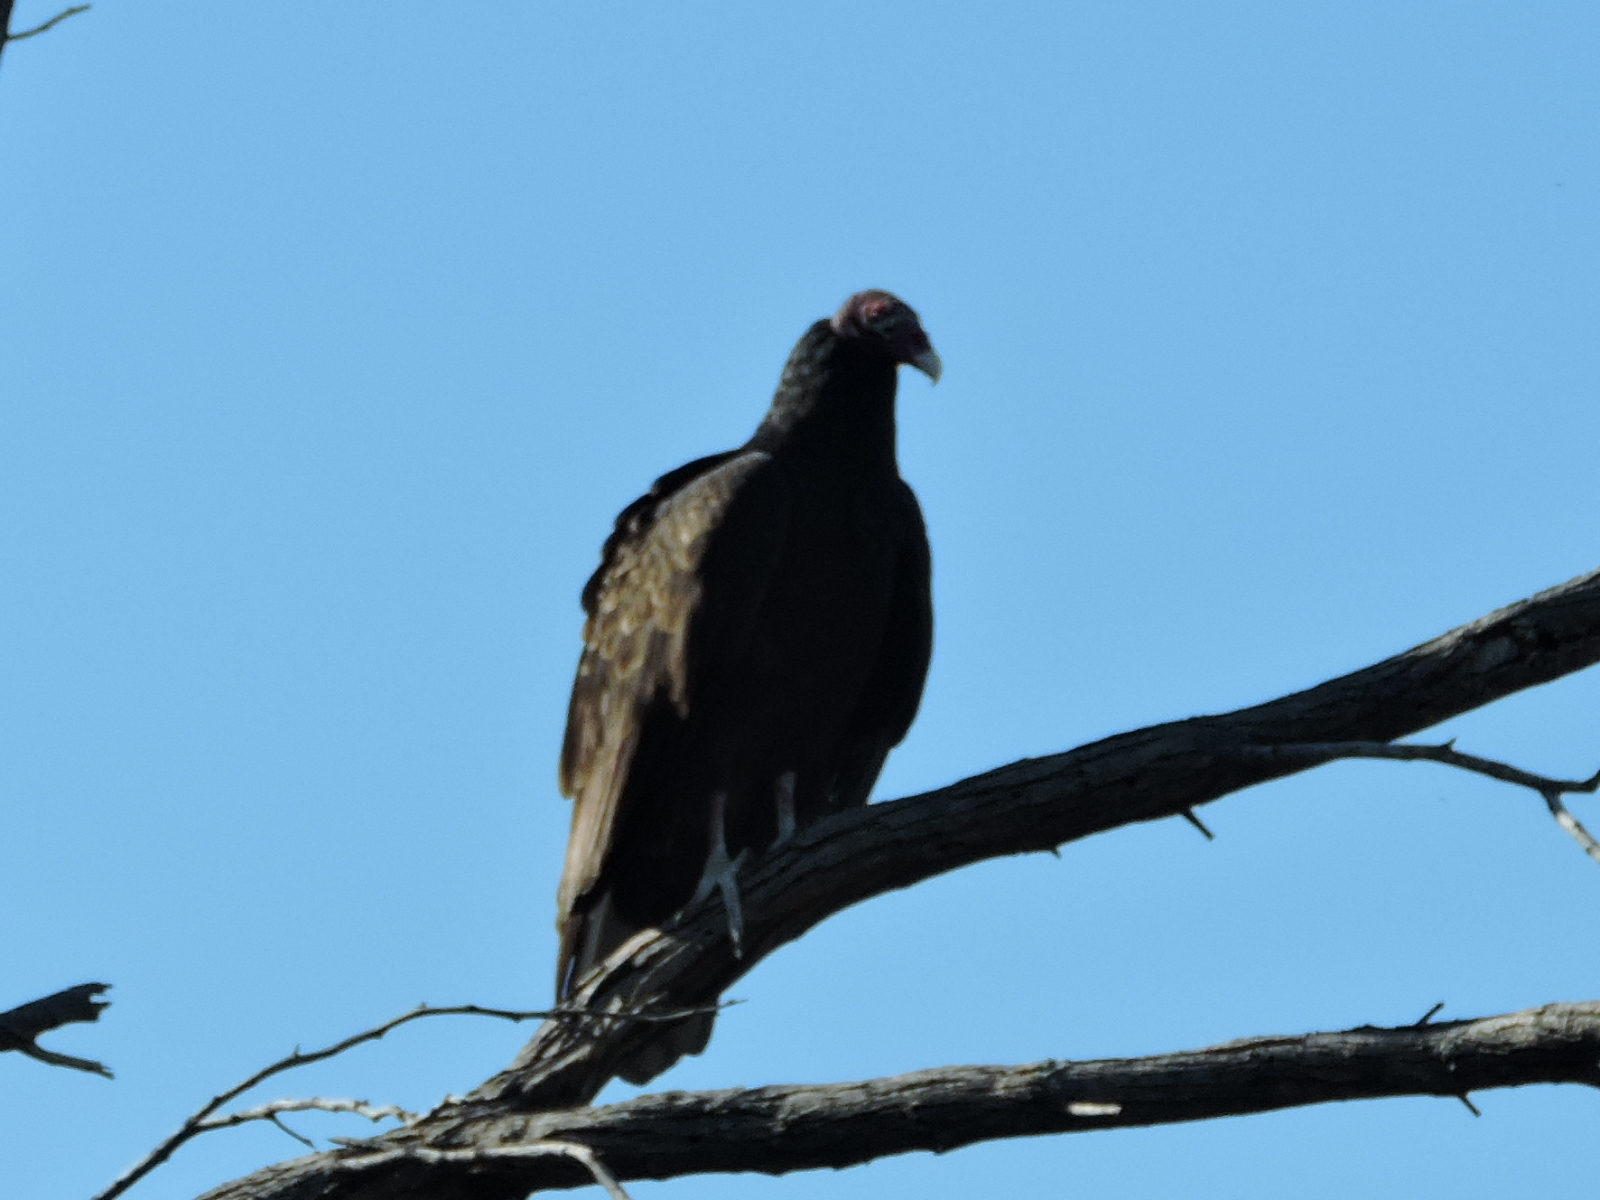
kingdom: Animalia
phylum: Chordata
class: Aves
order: Accipitriformes
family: Cathartidae
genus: Cathartes
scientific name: Cathartes aura
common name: Turkey vulture
